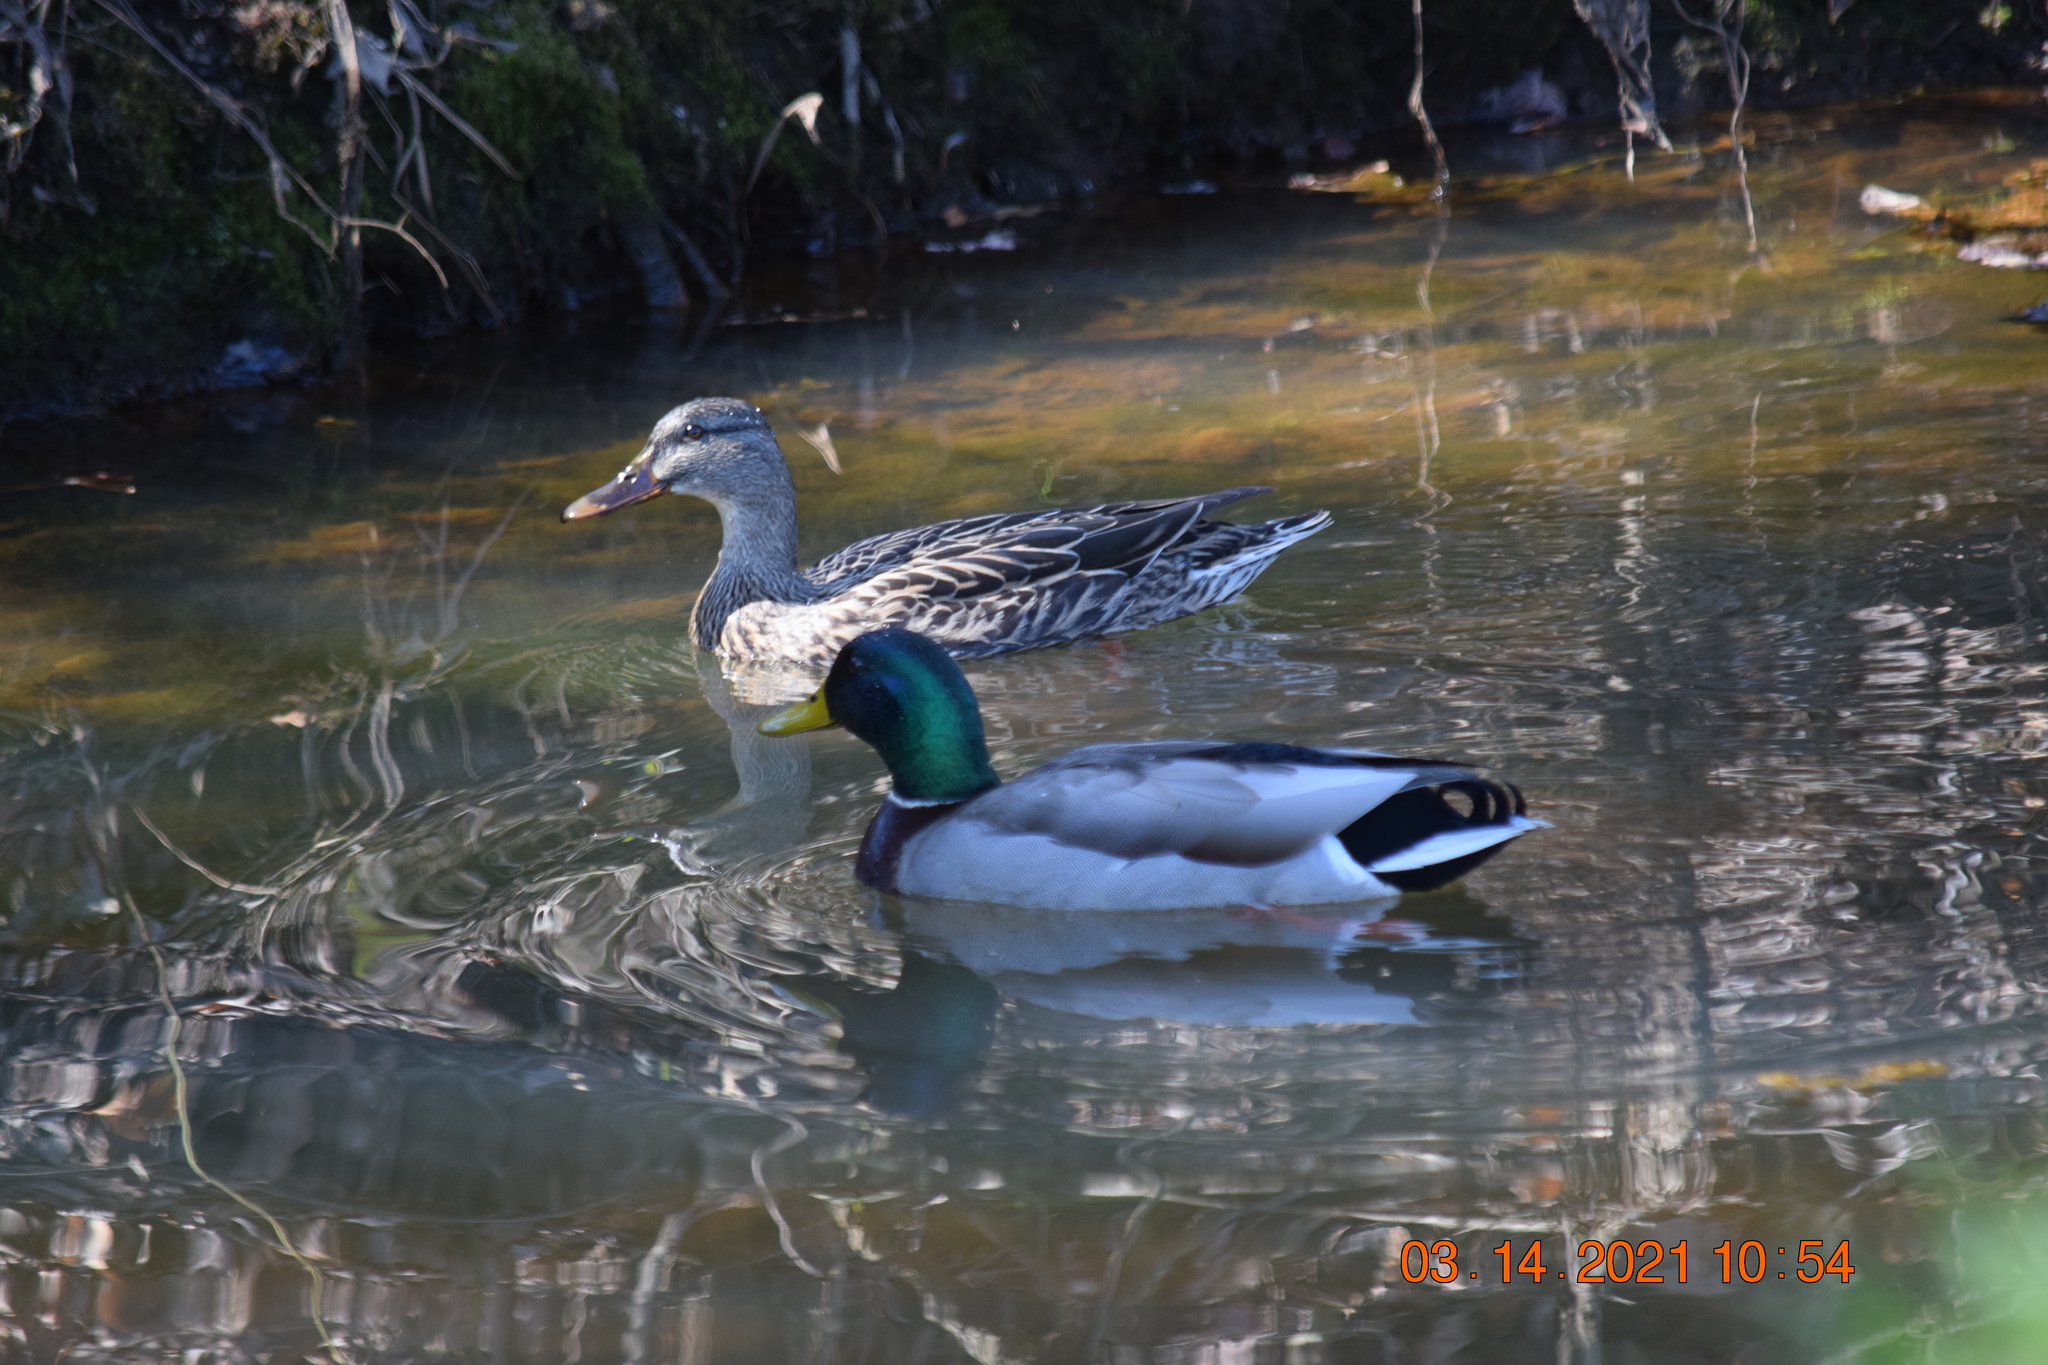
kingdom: Animalia
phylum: Chordata
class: Aves
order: Anseriformes
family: Anatidae
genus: Anas
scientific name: Anas platyrhynchos
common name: Mallard
